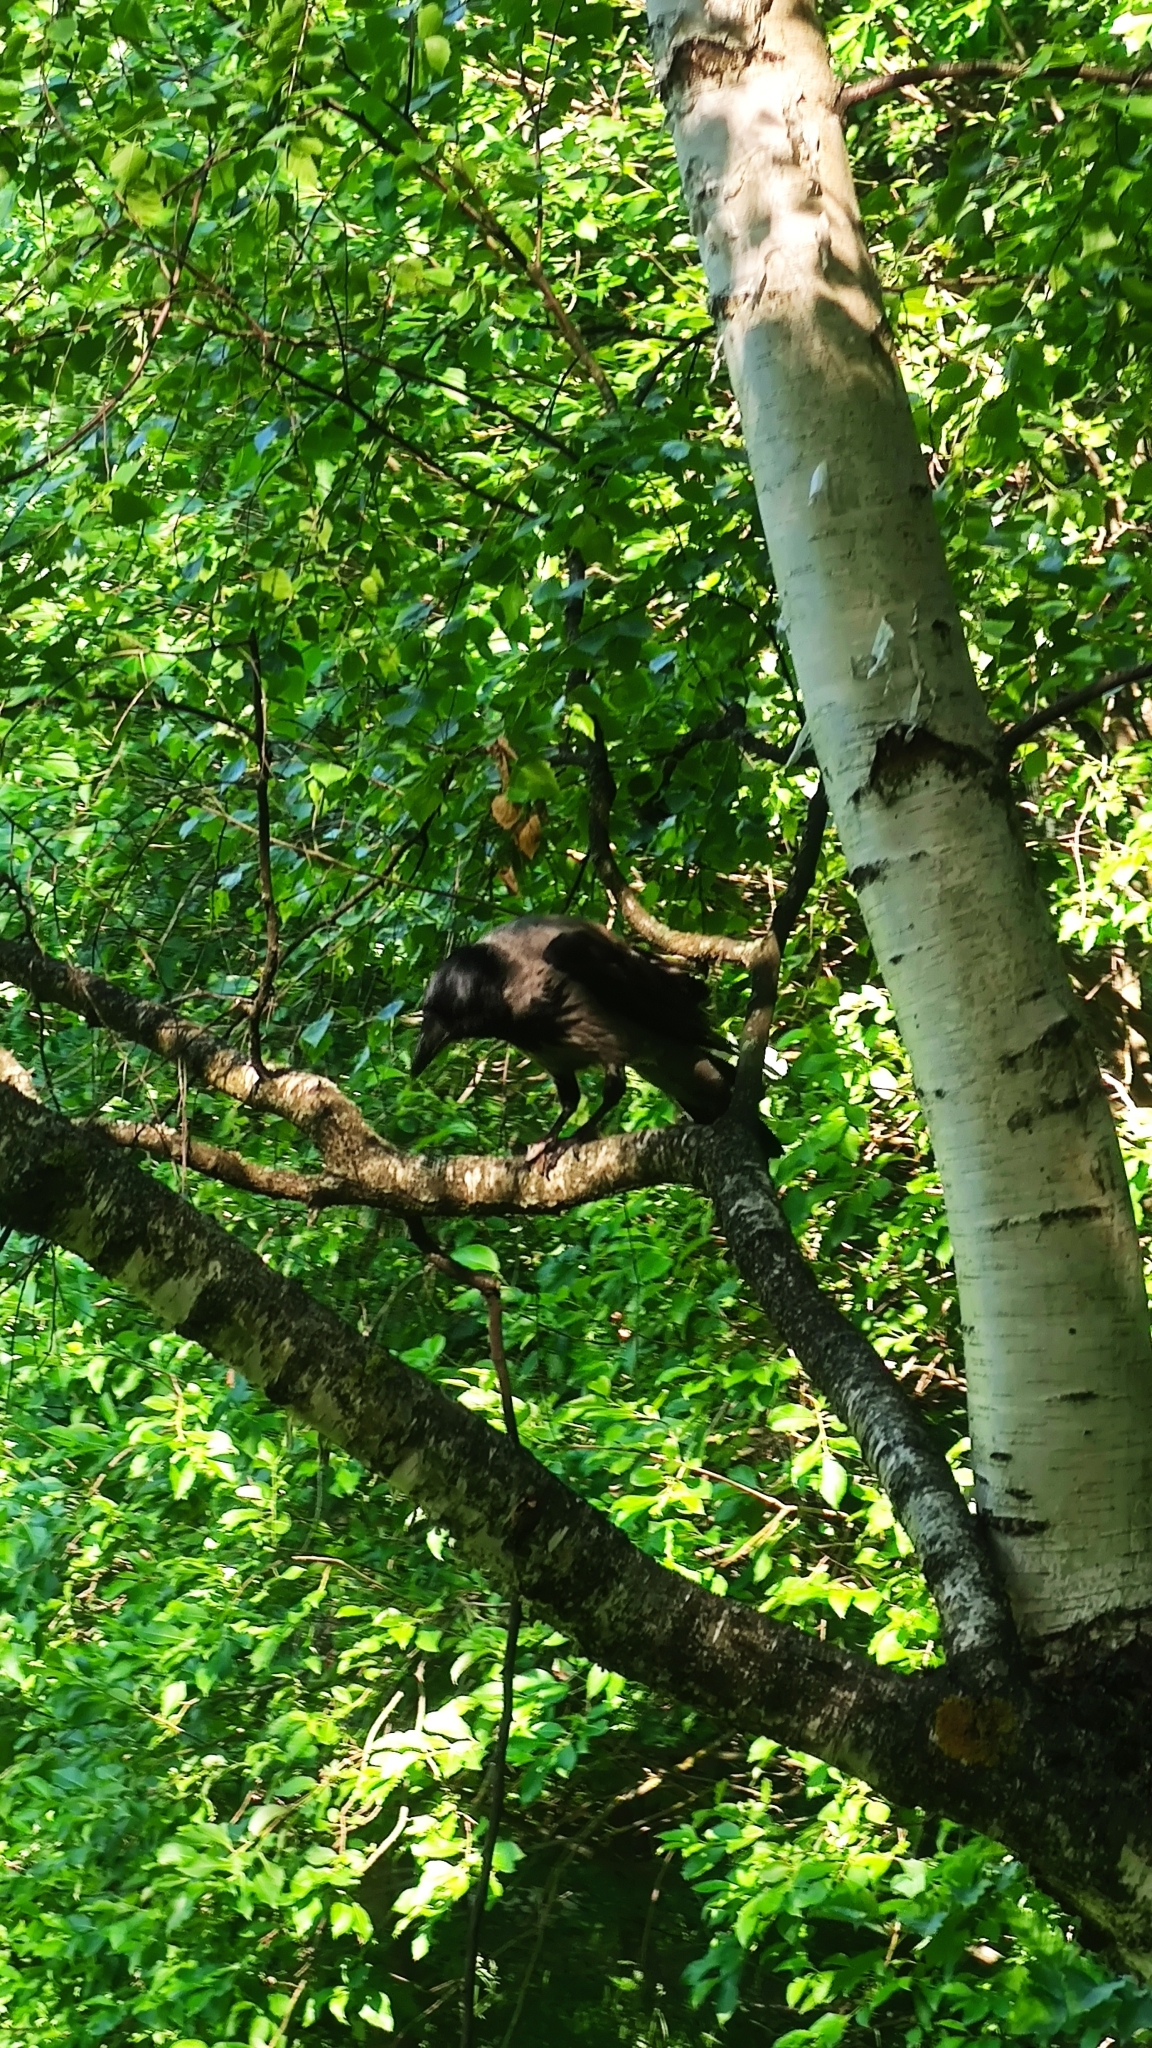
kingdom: Animalia
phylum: Chordata
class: Aves
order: Passeriformes
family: Corvidae
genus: Corvus
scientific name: Corvus cornix
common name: Hooded crow
